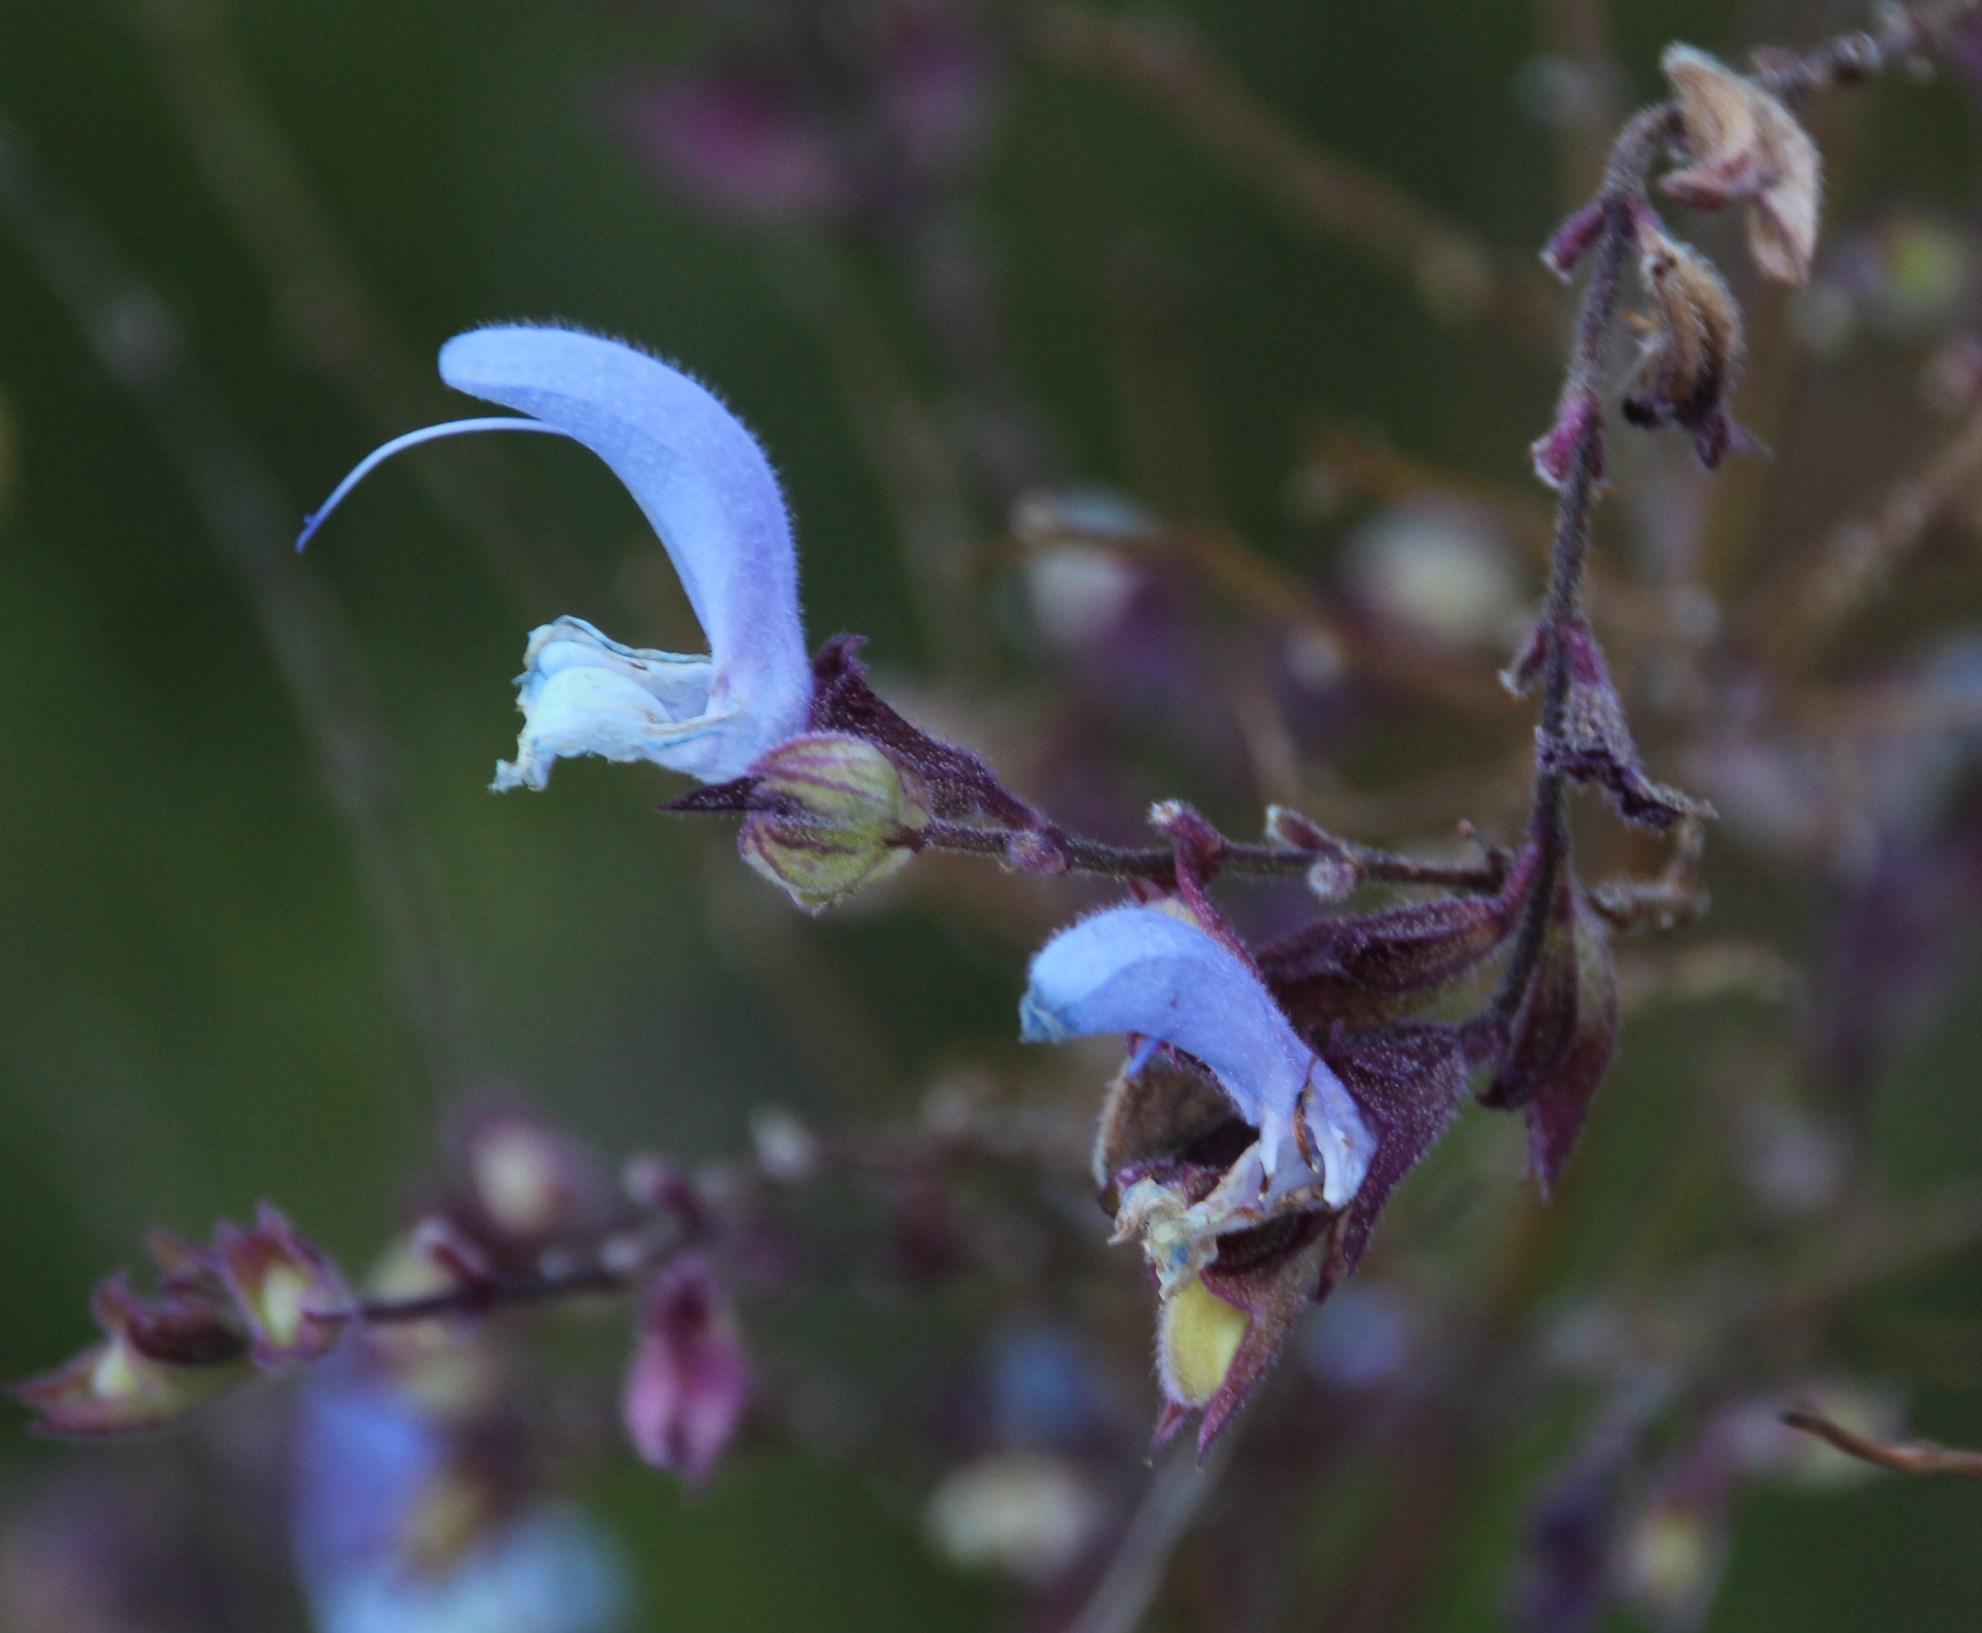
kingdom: Plantae
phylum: Tracheophyta
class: Magnoliopsida
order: Lamiales
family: Lamiaceae
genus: Salvia
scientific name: Salvia chamelaeagnea
